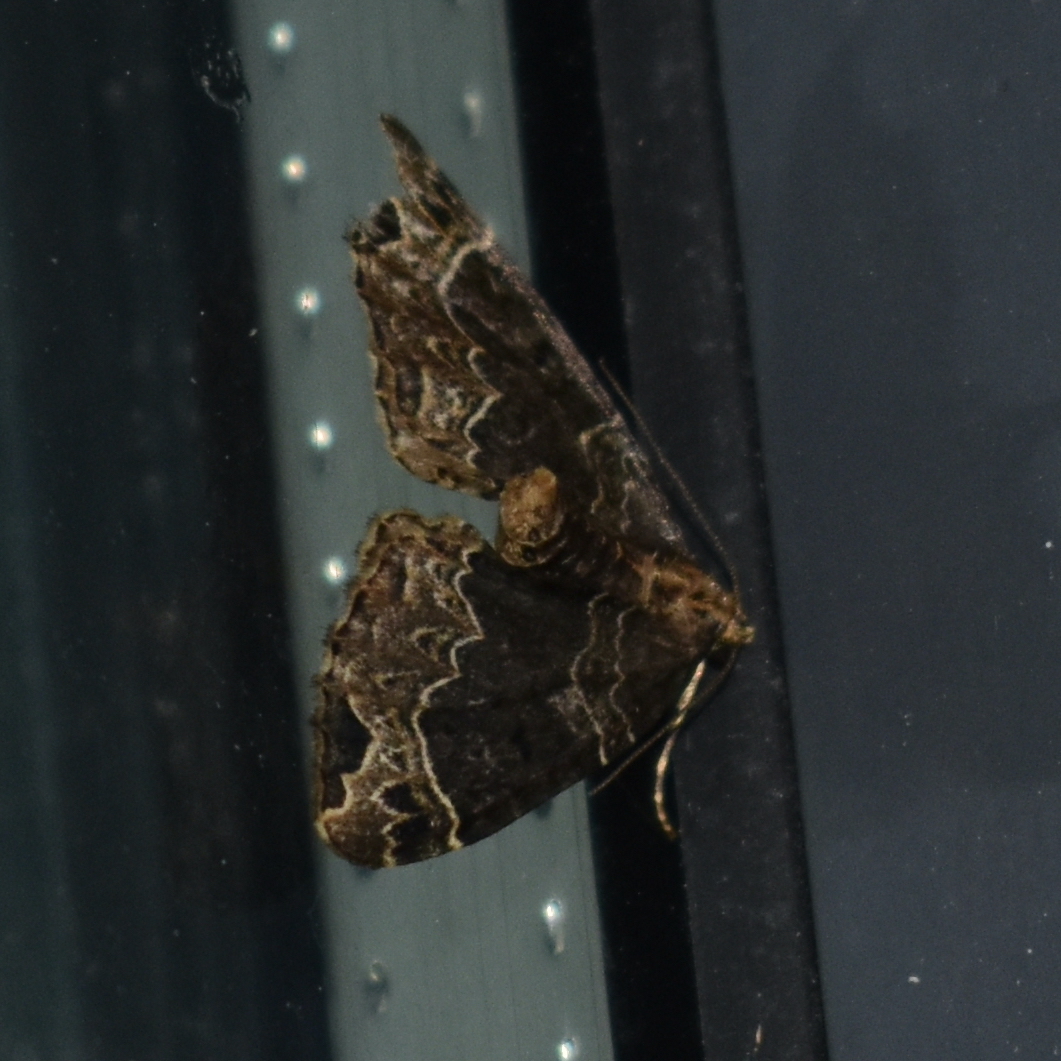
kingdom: Animalia
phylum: Arthropoda
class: Insecta
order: Lepidoptera
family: Geometridae
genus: Ecliptopera
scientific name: Ecliptopera silaceata
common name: Small phoenix
